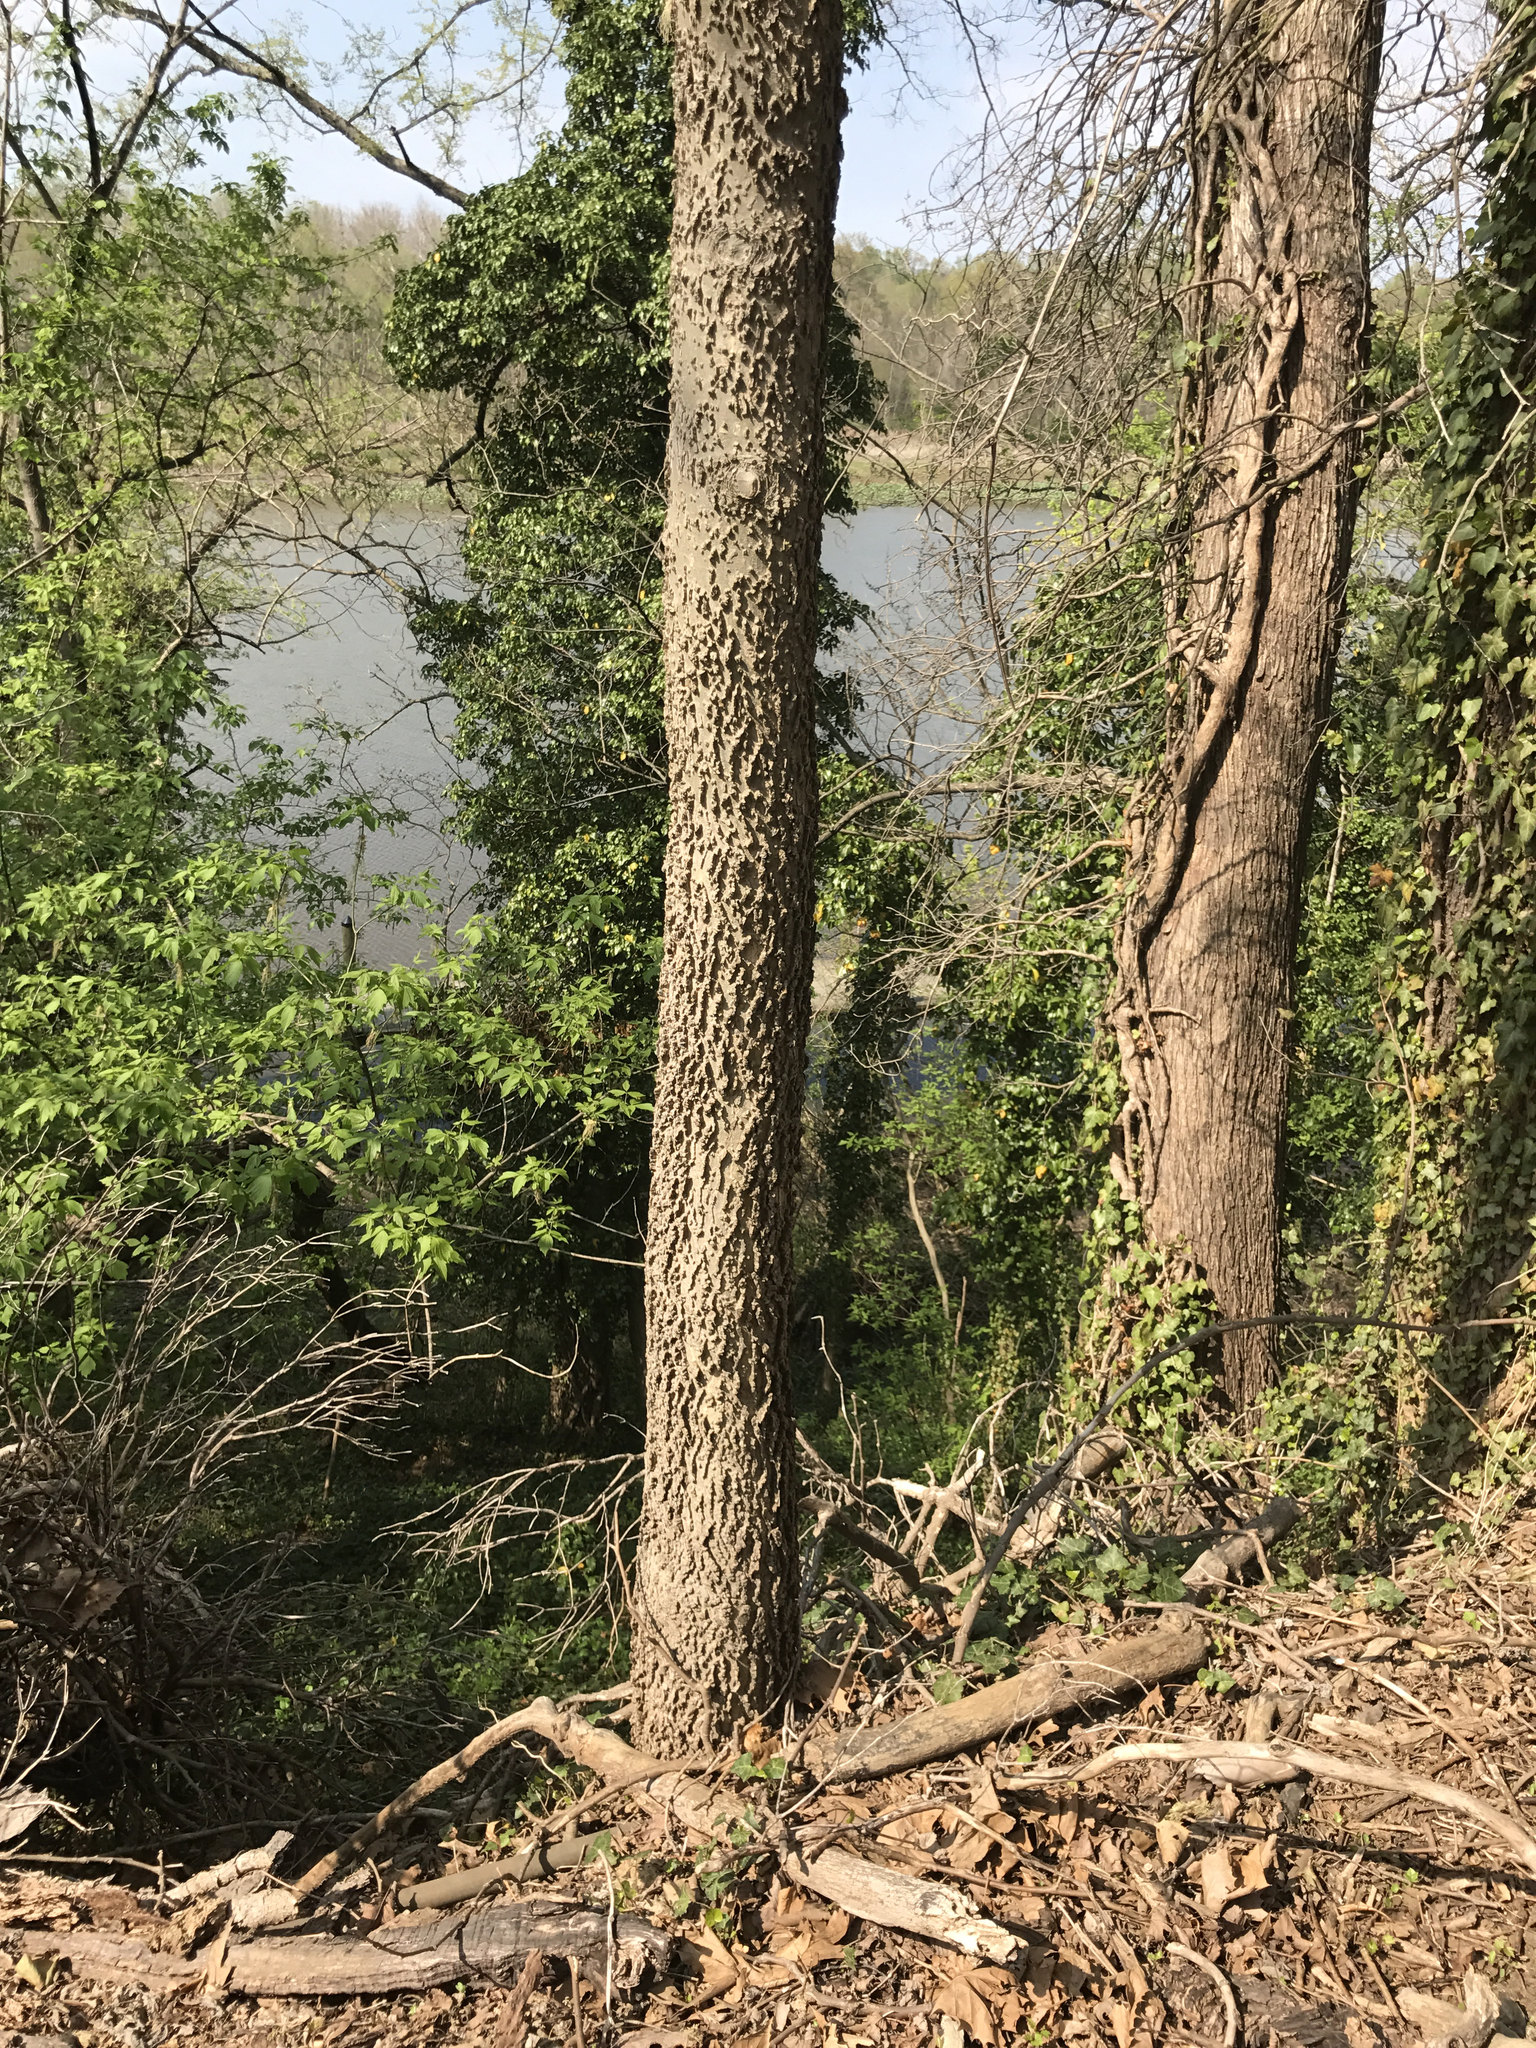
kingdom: Plantae
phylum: Tracheophyta
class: Magnoliopsida
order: Rosales
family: Cannabaceae
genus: Celtis
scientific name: Celtis occidentalis
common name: Common hackberry
